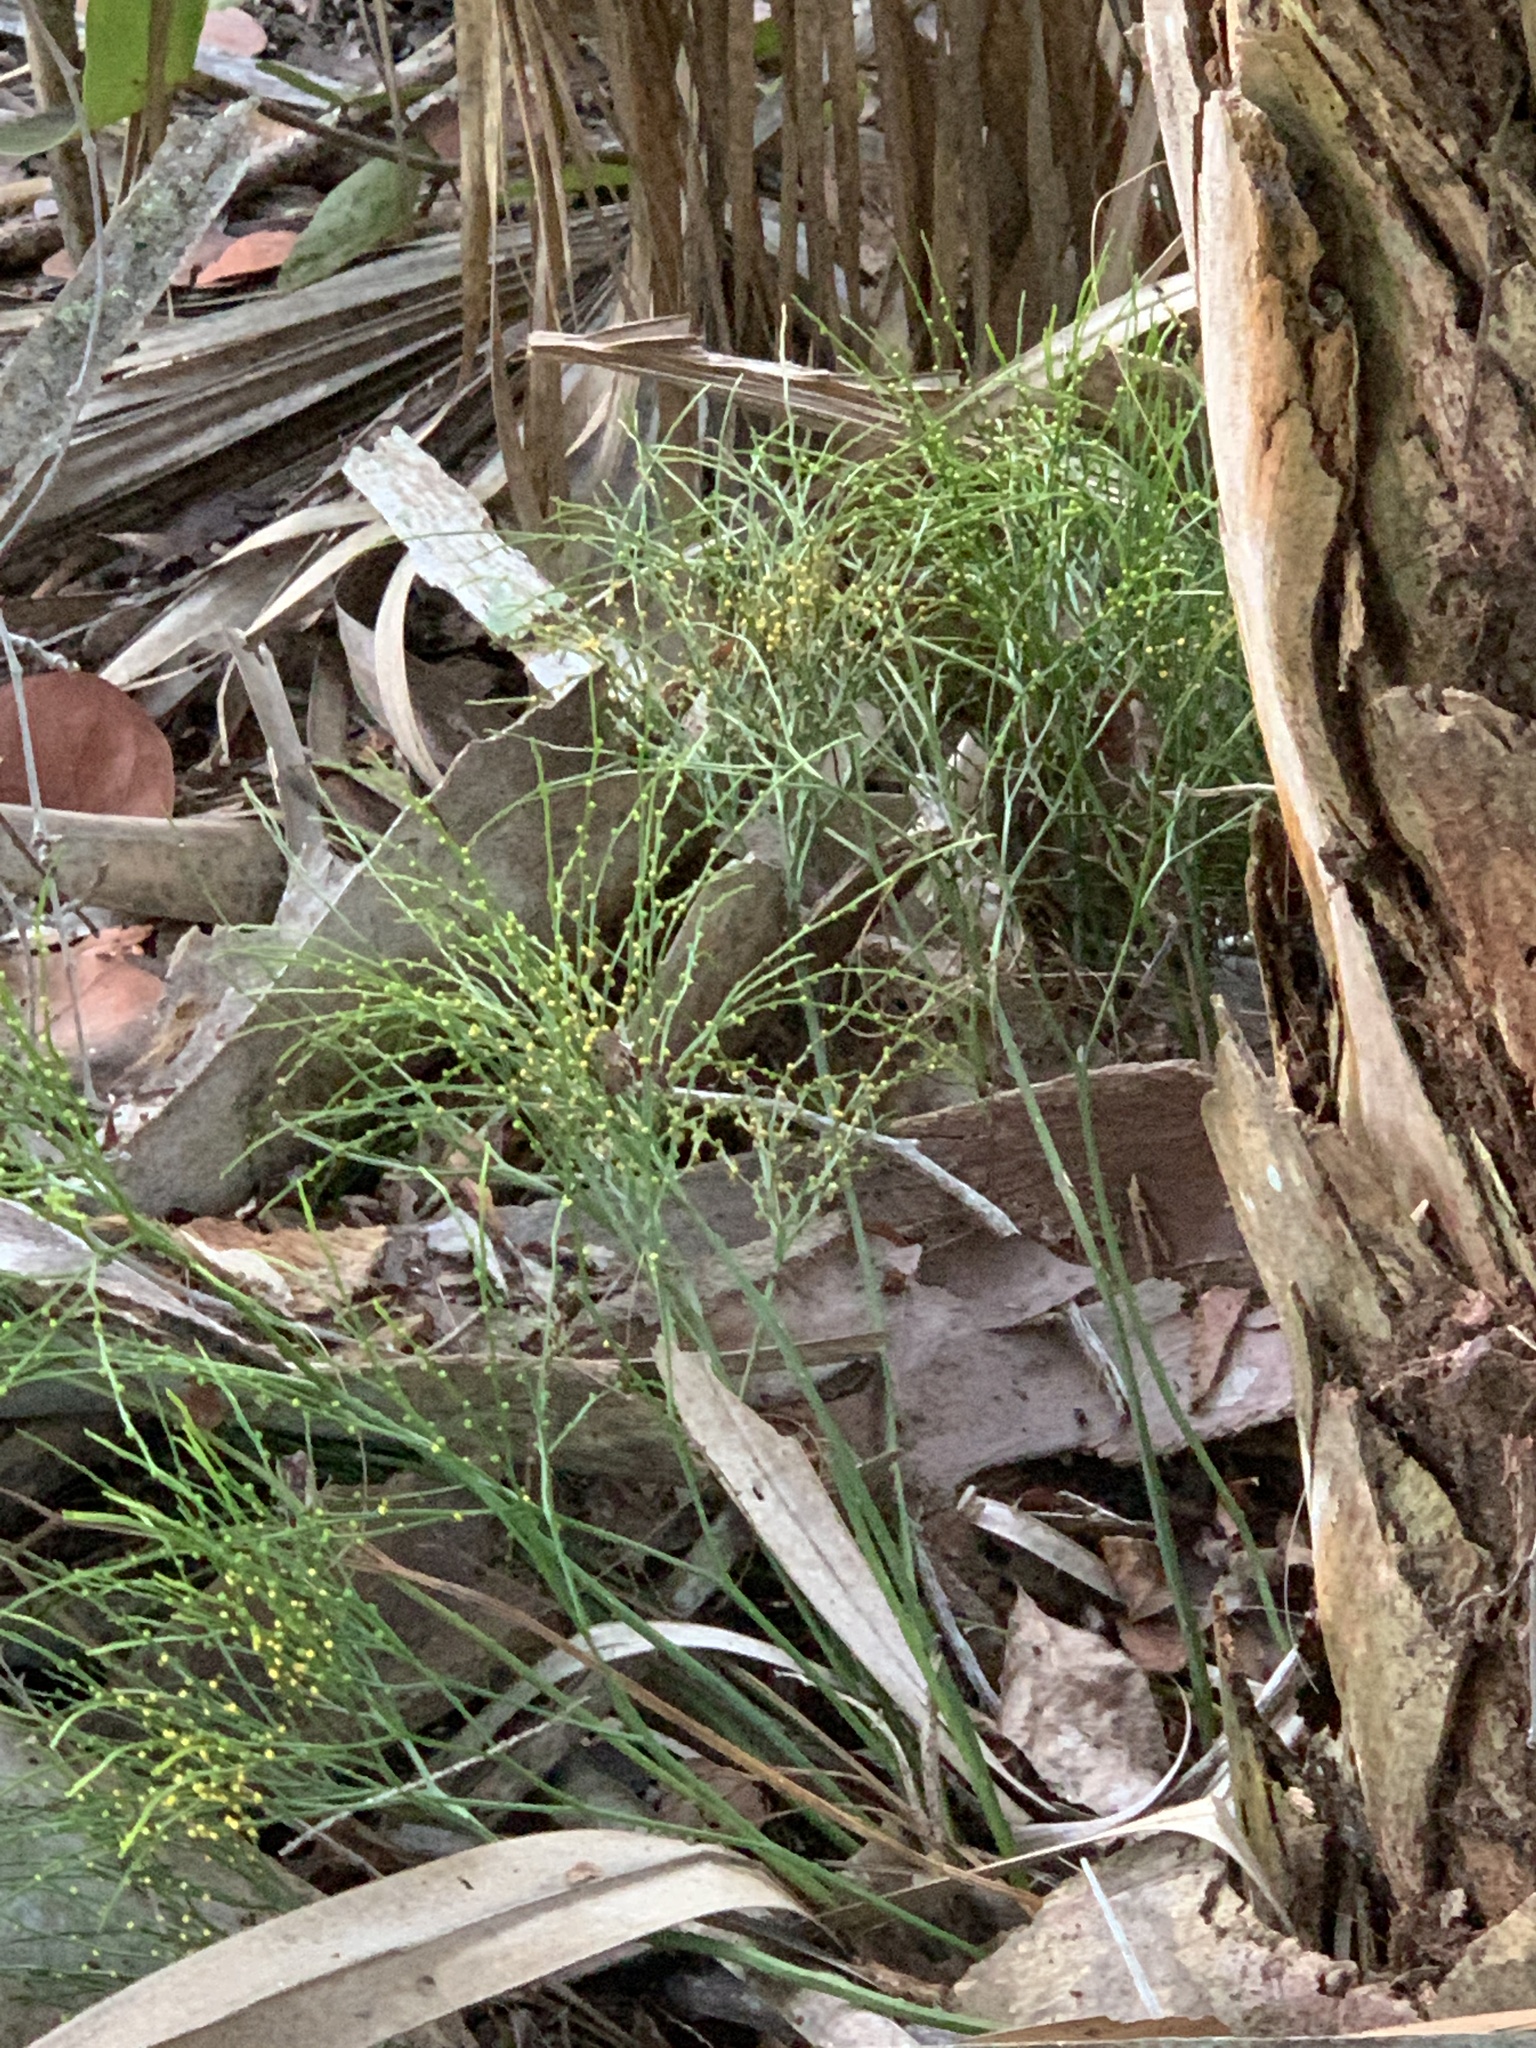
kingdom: Plantae
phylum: Tracheophyta
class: Polypodiopsida
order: Psilotales
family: Psilotaceae
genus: Psilotum
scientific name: Psilotum nudum
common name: Skeleton fork fern
